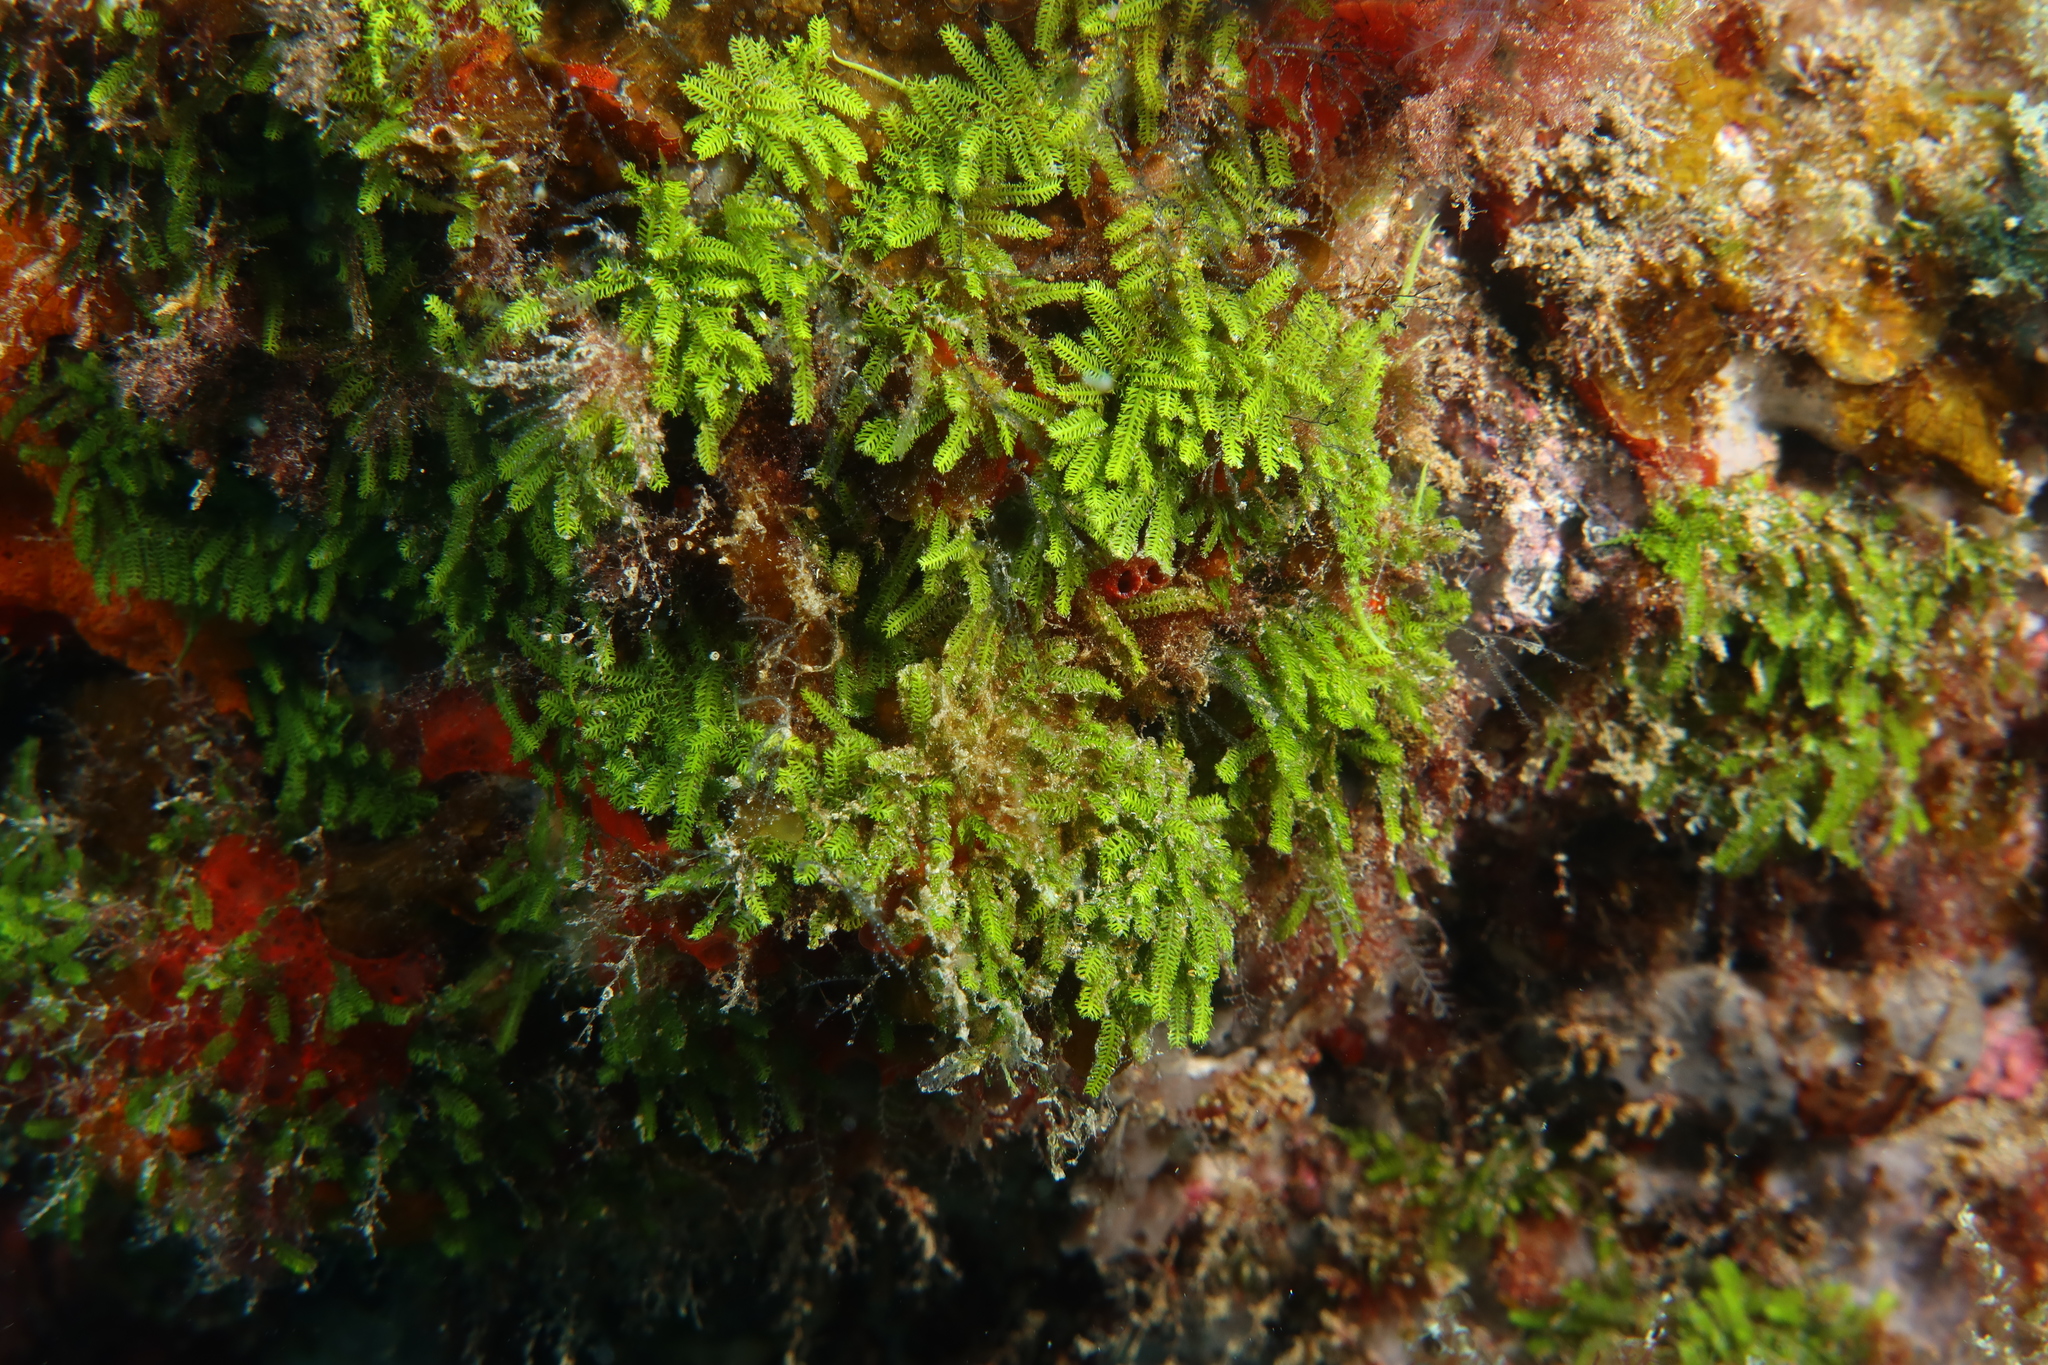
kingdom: Plantae
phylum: Chlorophyta
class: Ulvophyceae
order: Bryopsidales
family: Caulerpaceae
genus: Caulerpa
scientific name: Caulerpa webbiana
